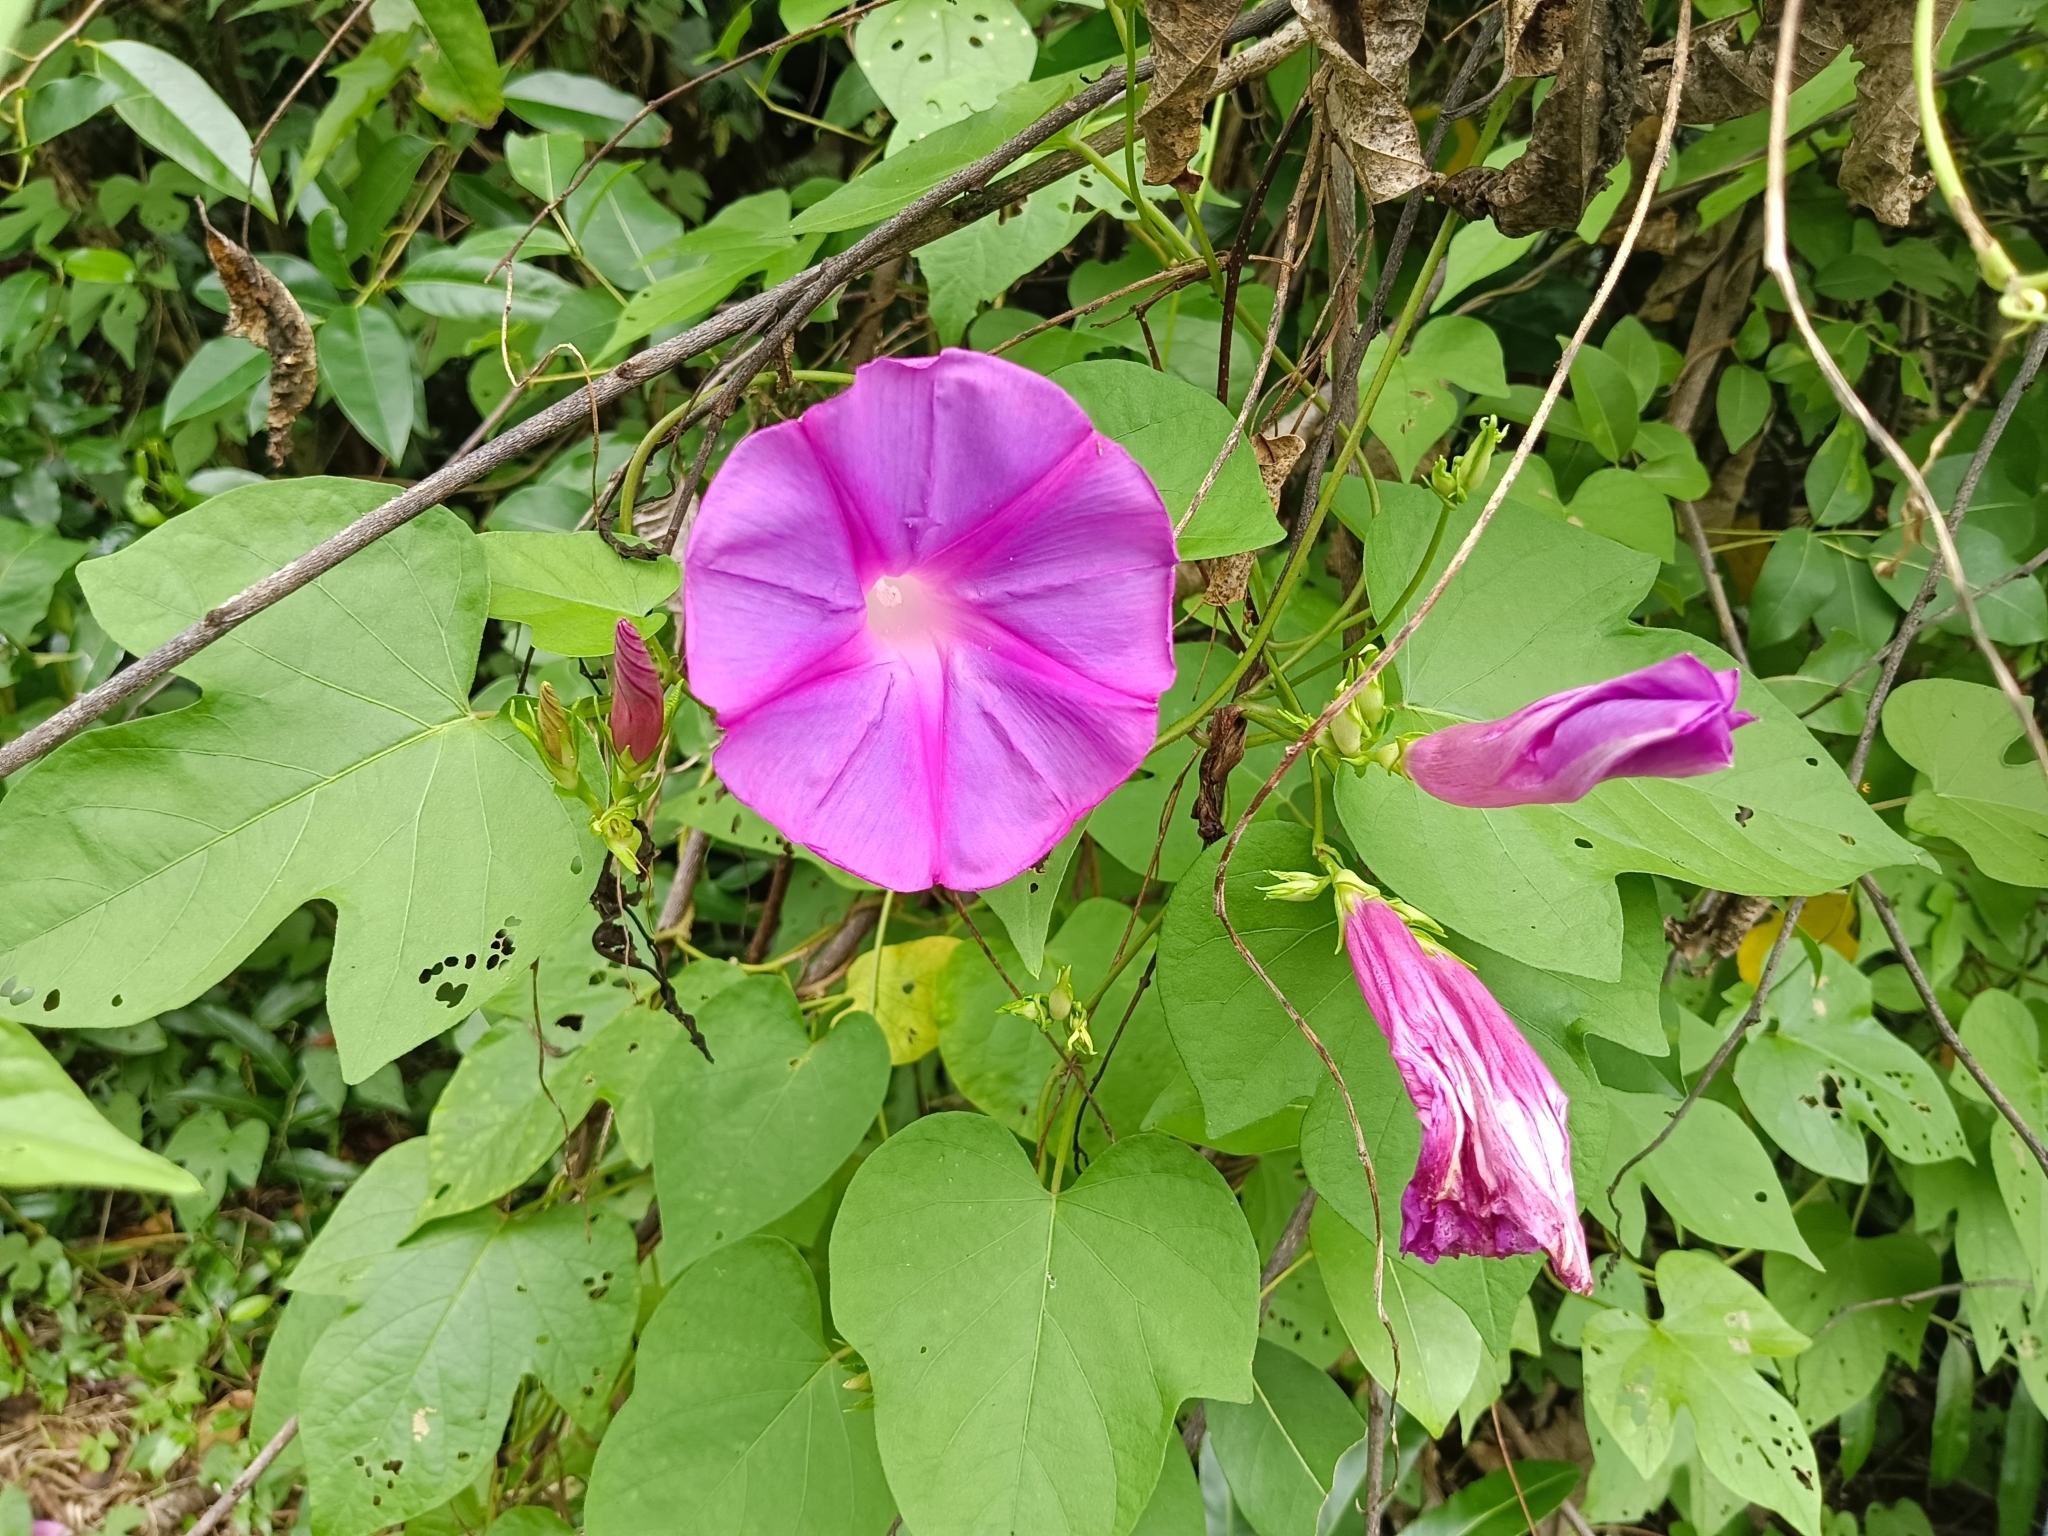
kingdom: Plantae
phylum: Tracheophyta
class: Magnoliopsida
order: Solanales
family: Convolvulaceae
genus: Ipomoea
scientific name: Ipomoea indica
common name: Blue dawnflower
